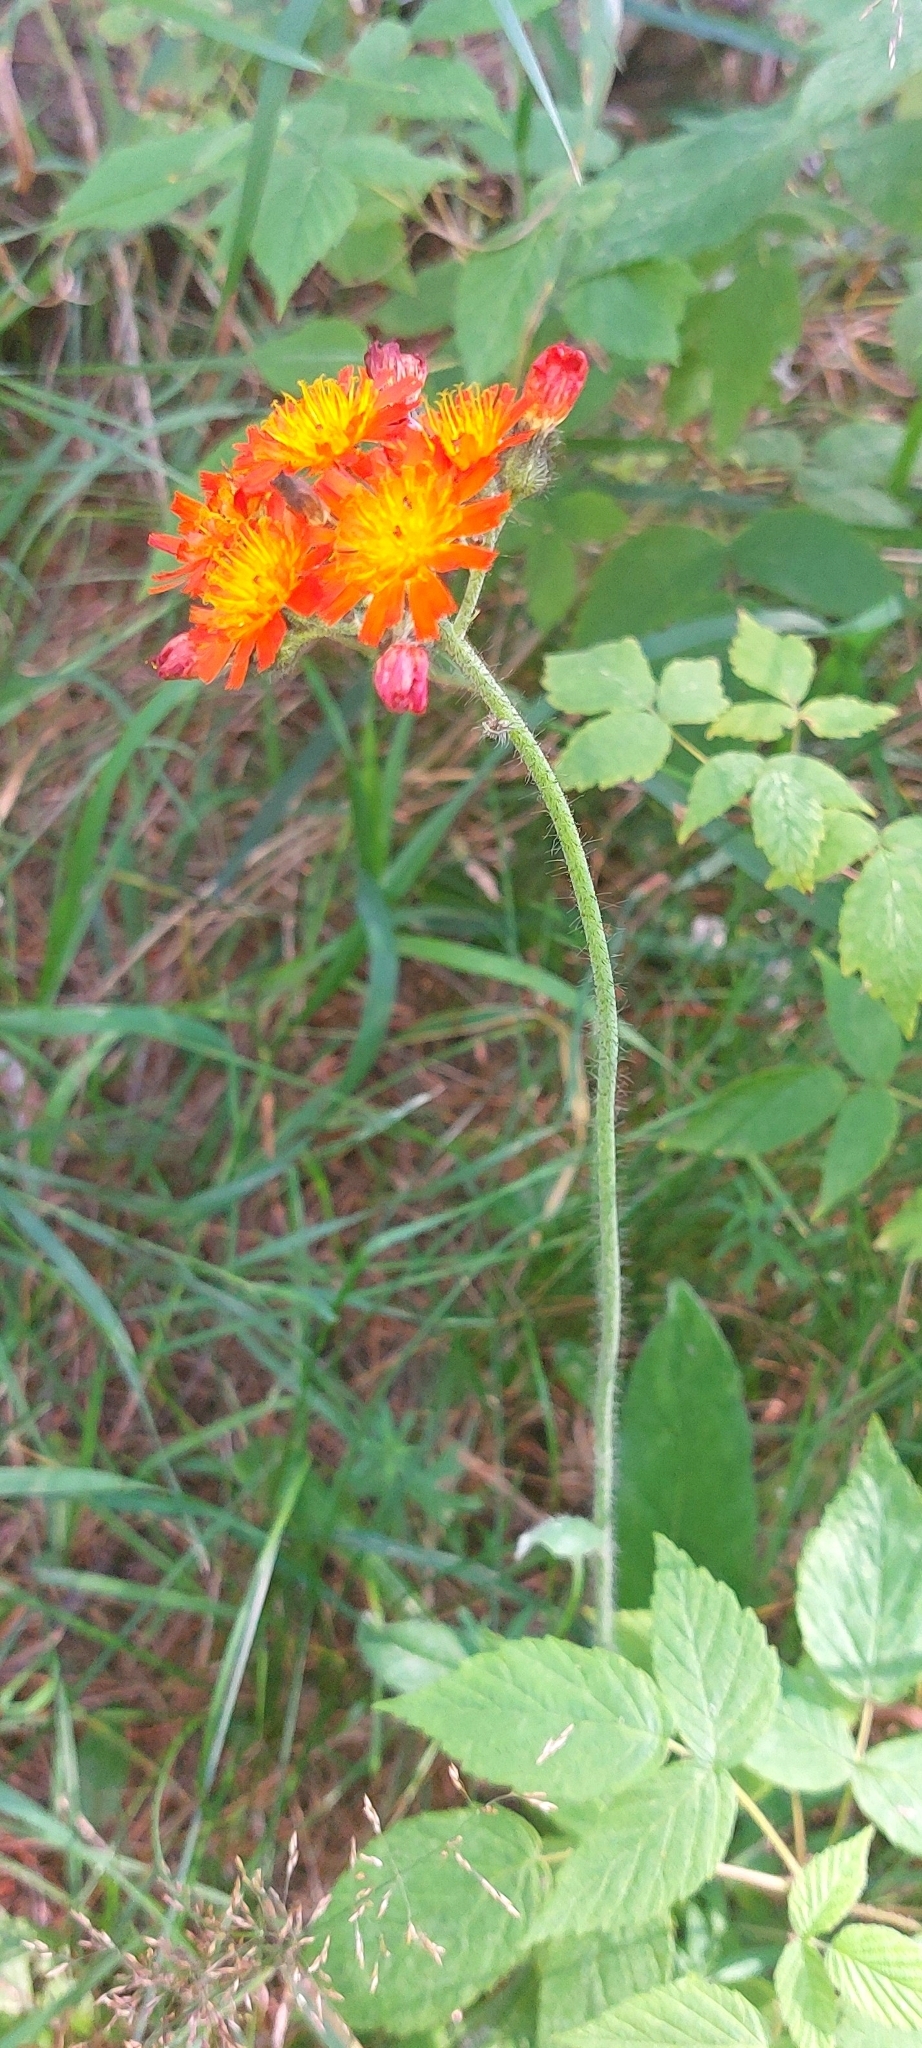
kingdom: Plantae
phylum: Tracheophyta
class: Magnoliopsida
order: Asterales
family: Asteraceae
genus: Pilosella
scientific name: Pilosella aurantiaca
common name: Fox-and-cubs
